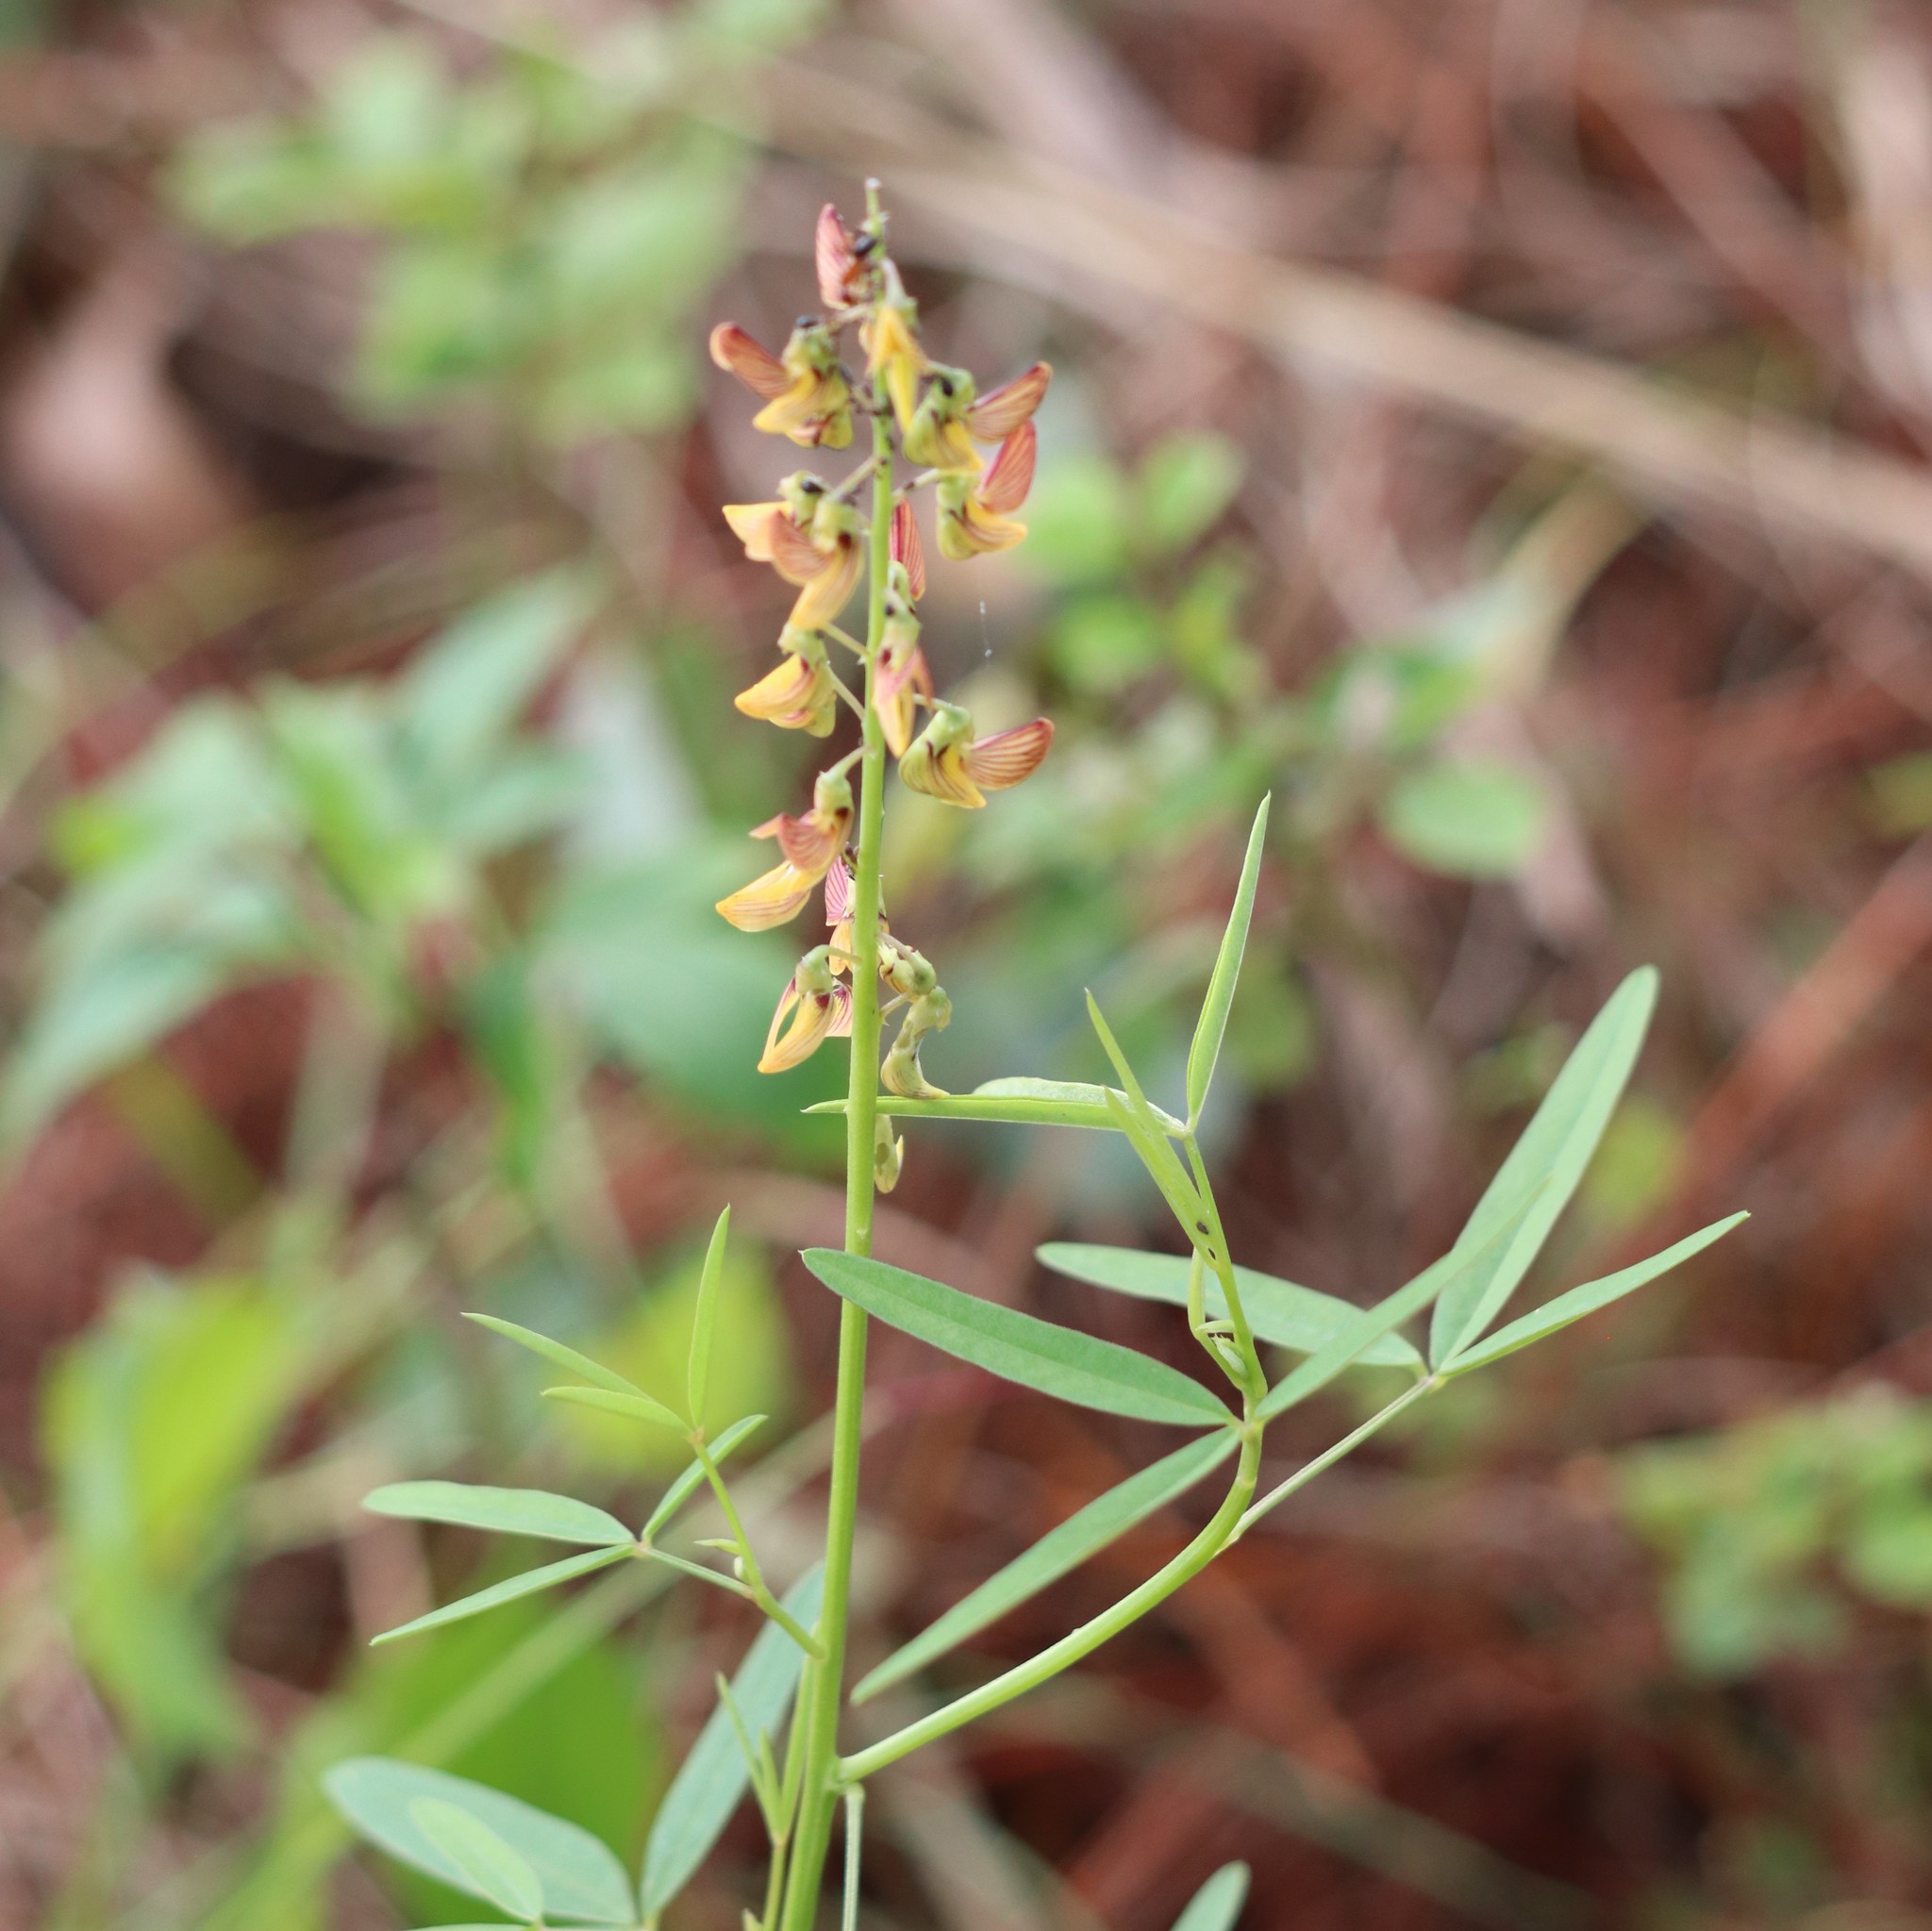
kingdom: Plantae
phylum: Tracheophyta
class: Magnoliopsida
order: Fabales
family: Fabaceae
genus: Crotalaria
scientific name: Crotalaria lanceolata
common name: Lanceleaf rattlebox
